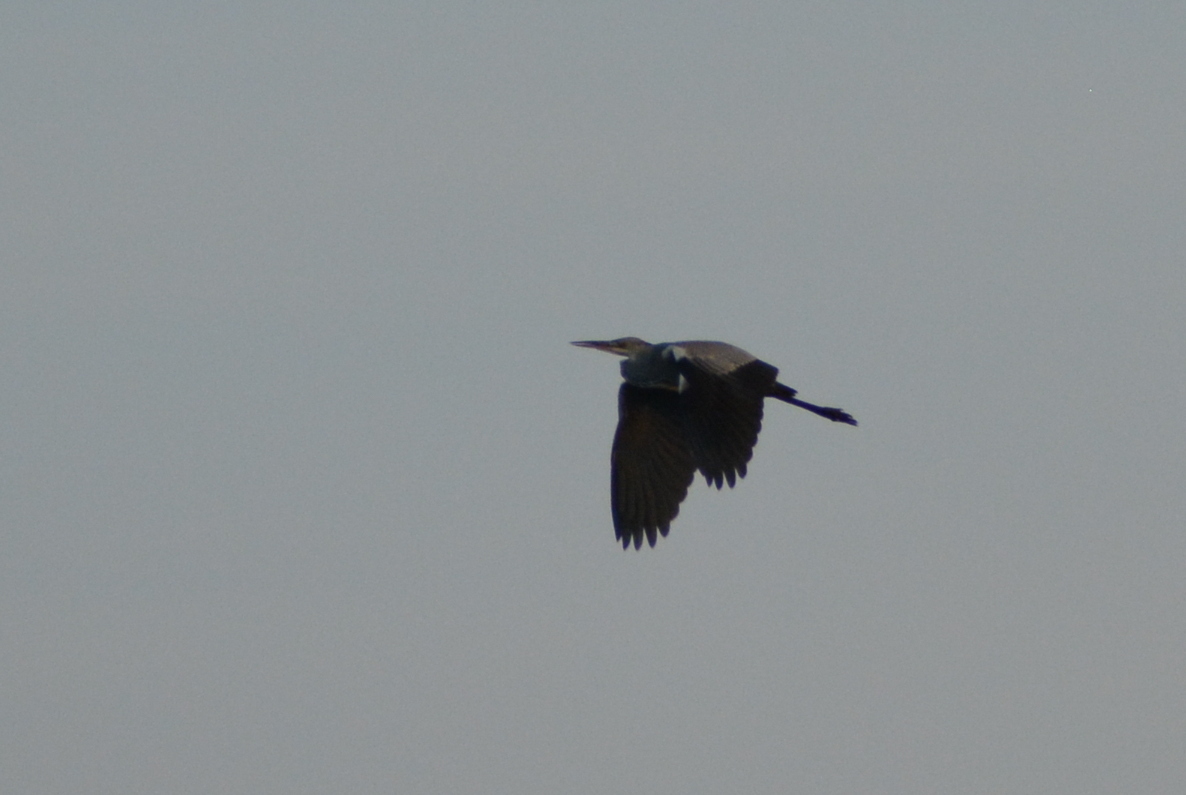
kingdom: Animalia
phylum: Chordata
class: Aves
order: Pelecaniformes
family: Ardeidae
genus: Ardea
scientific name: Ardea cinerea
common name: Grey heron
